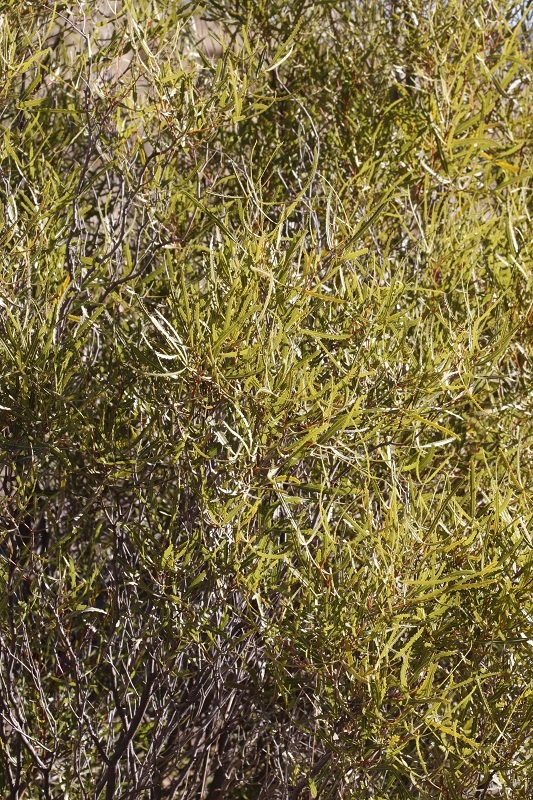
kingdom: Plantae
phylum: Tracheophyta
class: Magnoliopsida
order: Sapindales
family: Anacardiaceae
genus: Searsia
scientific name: Searsia erosa
